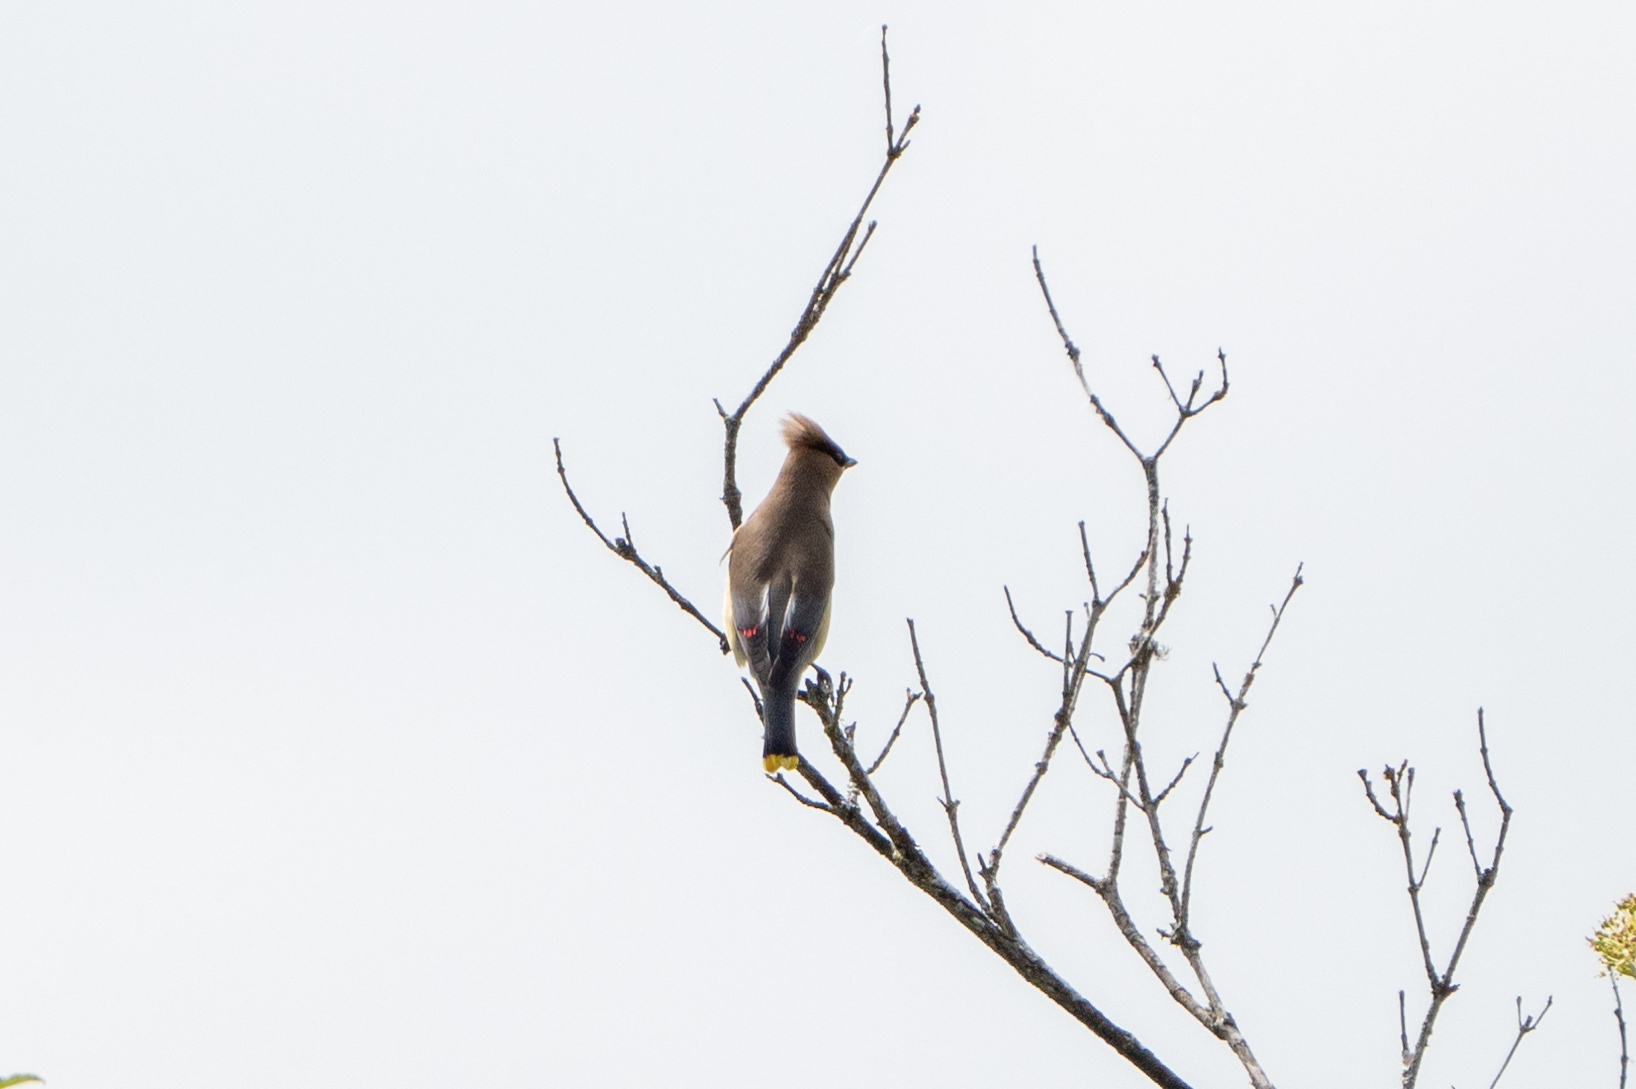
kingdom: Animalia
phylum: Chordata
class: Aves
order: Passeriformes
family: Bombycillidae
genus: Bombycilla
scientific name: Bombycilla cedrorum
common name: Cedar waxwing
